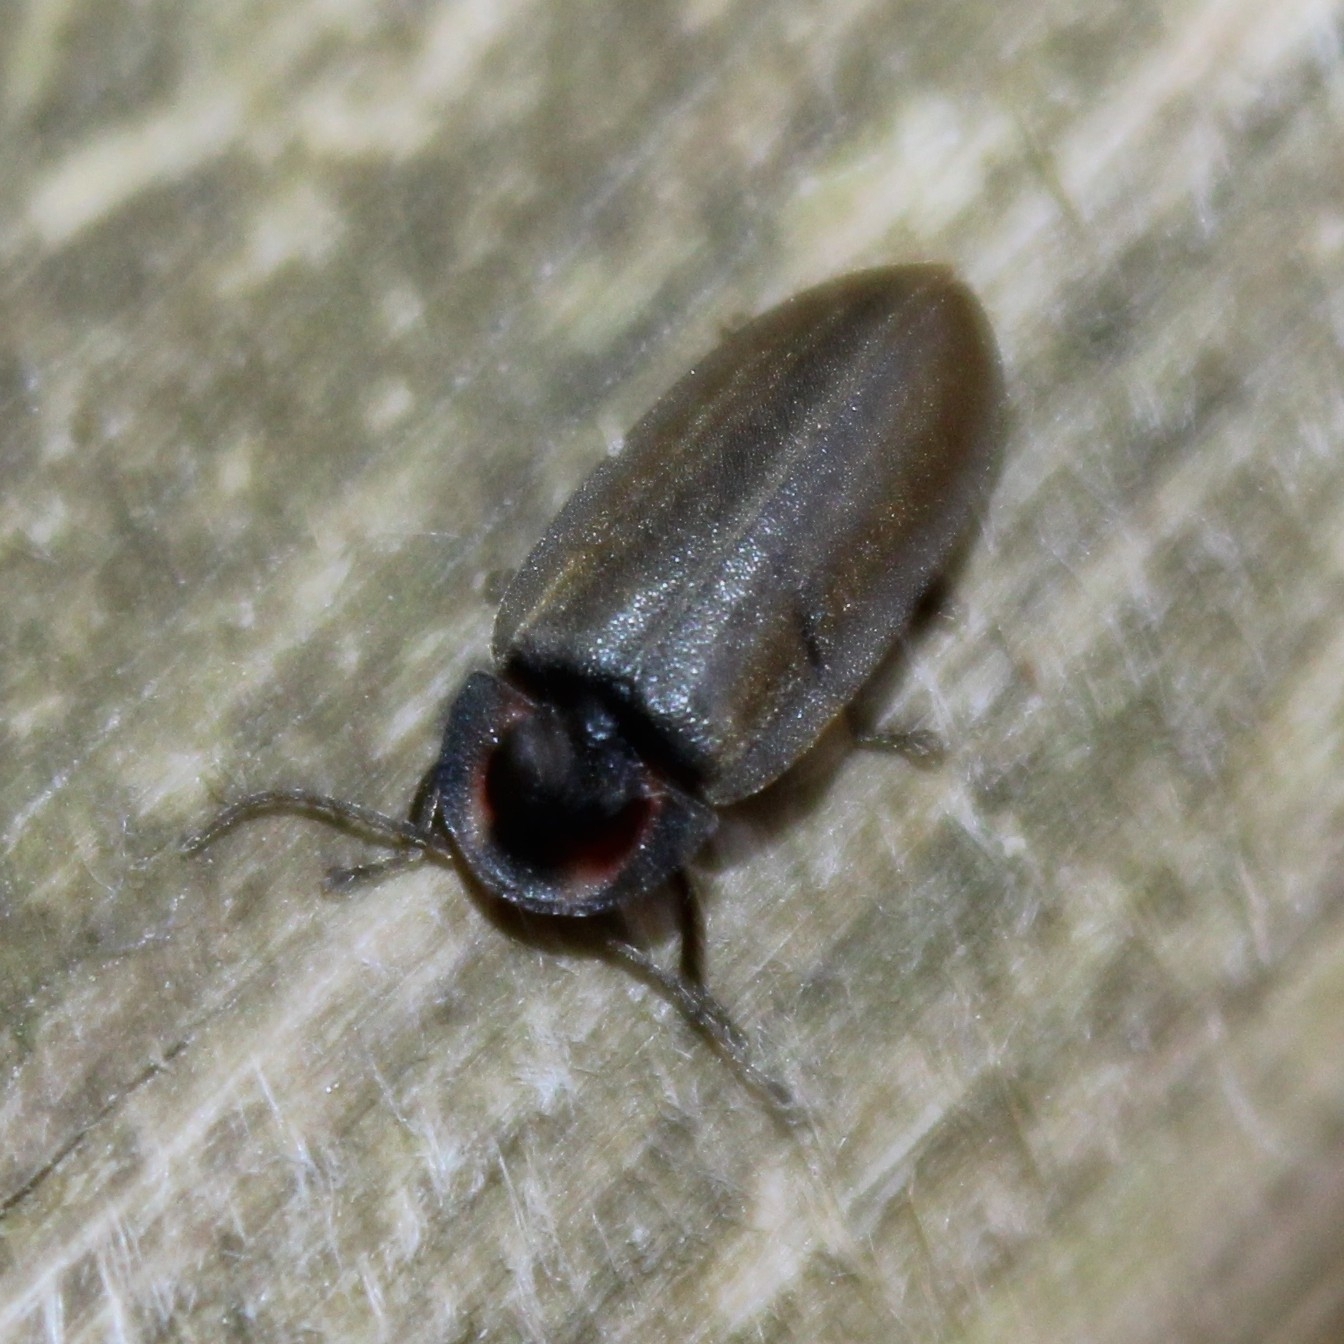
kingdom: Animalia
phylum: Arthropoda
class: Insecta
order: Coleoptera
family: Lampyridae
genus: Photinus
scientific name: Photinus corrusca
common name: Winter firefly
